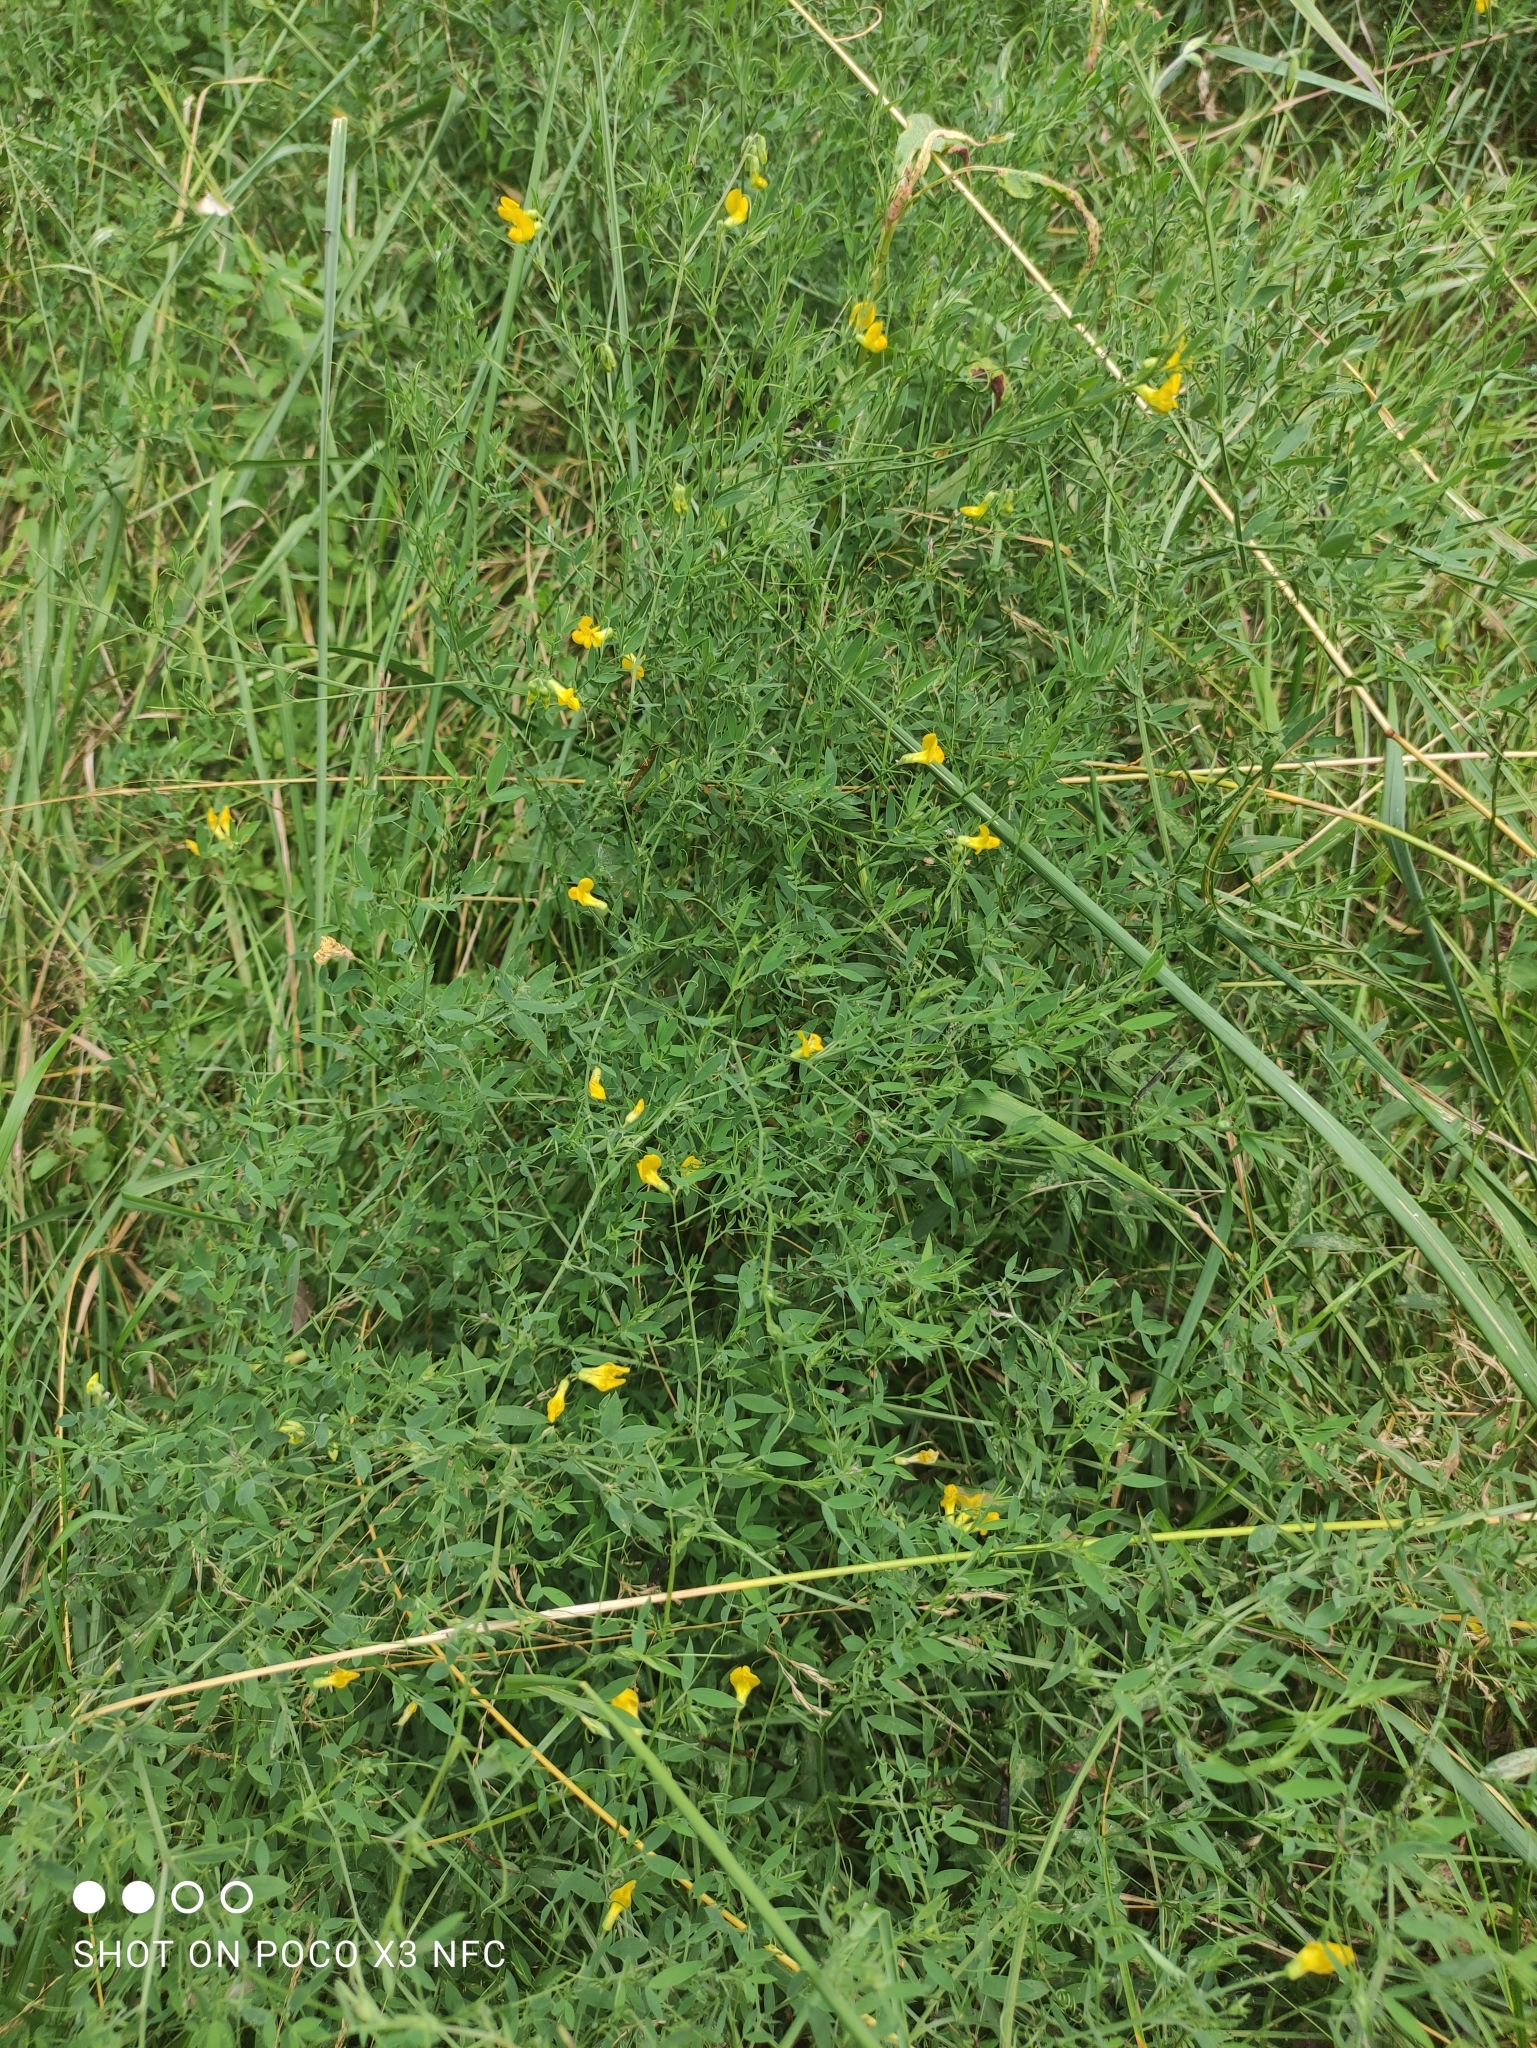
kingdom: Plantae
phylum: Tracheophyta
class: Magnoliopsida
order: Fabales
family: Fabaceae
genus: Lathyrus
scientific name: Lathyrus pratensis
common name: Meadow vetchling
